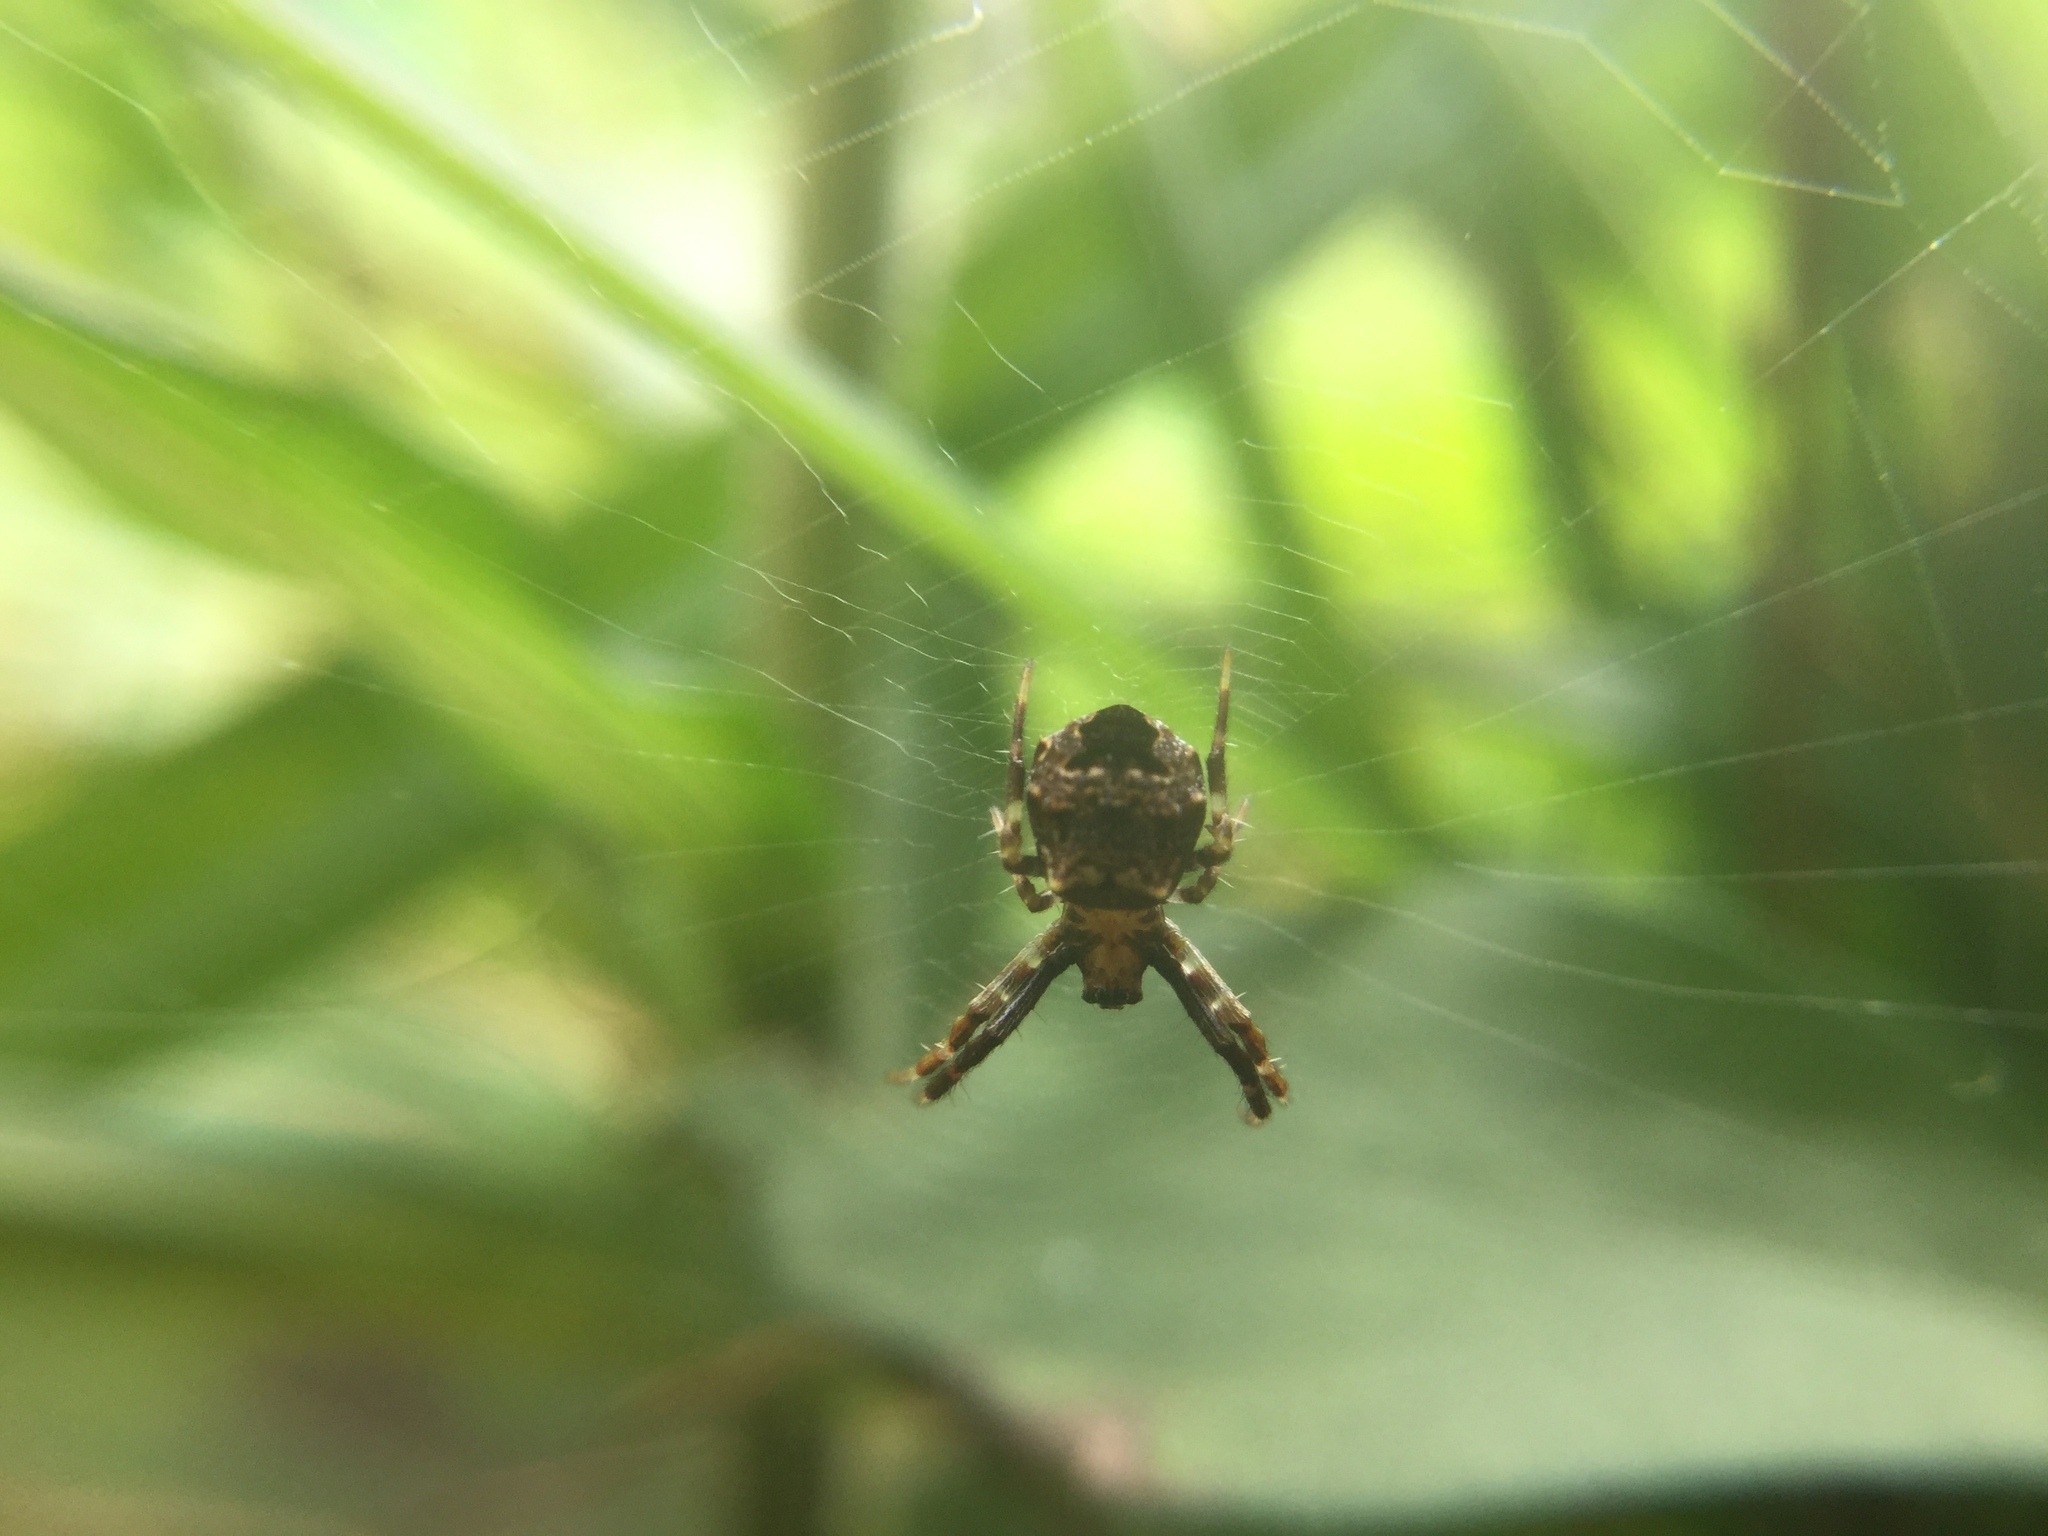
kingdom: Animalia
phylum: Arthropoda
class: Arachnida
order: Araneae
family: Araneidae
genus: Gea
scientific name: Gea heptagon
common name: Orb weavers
